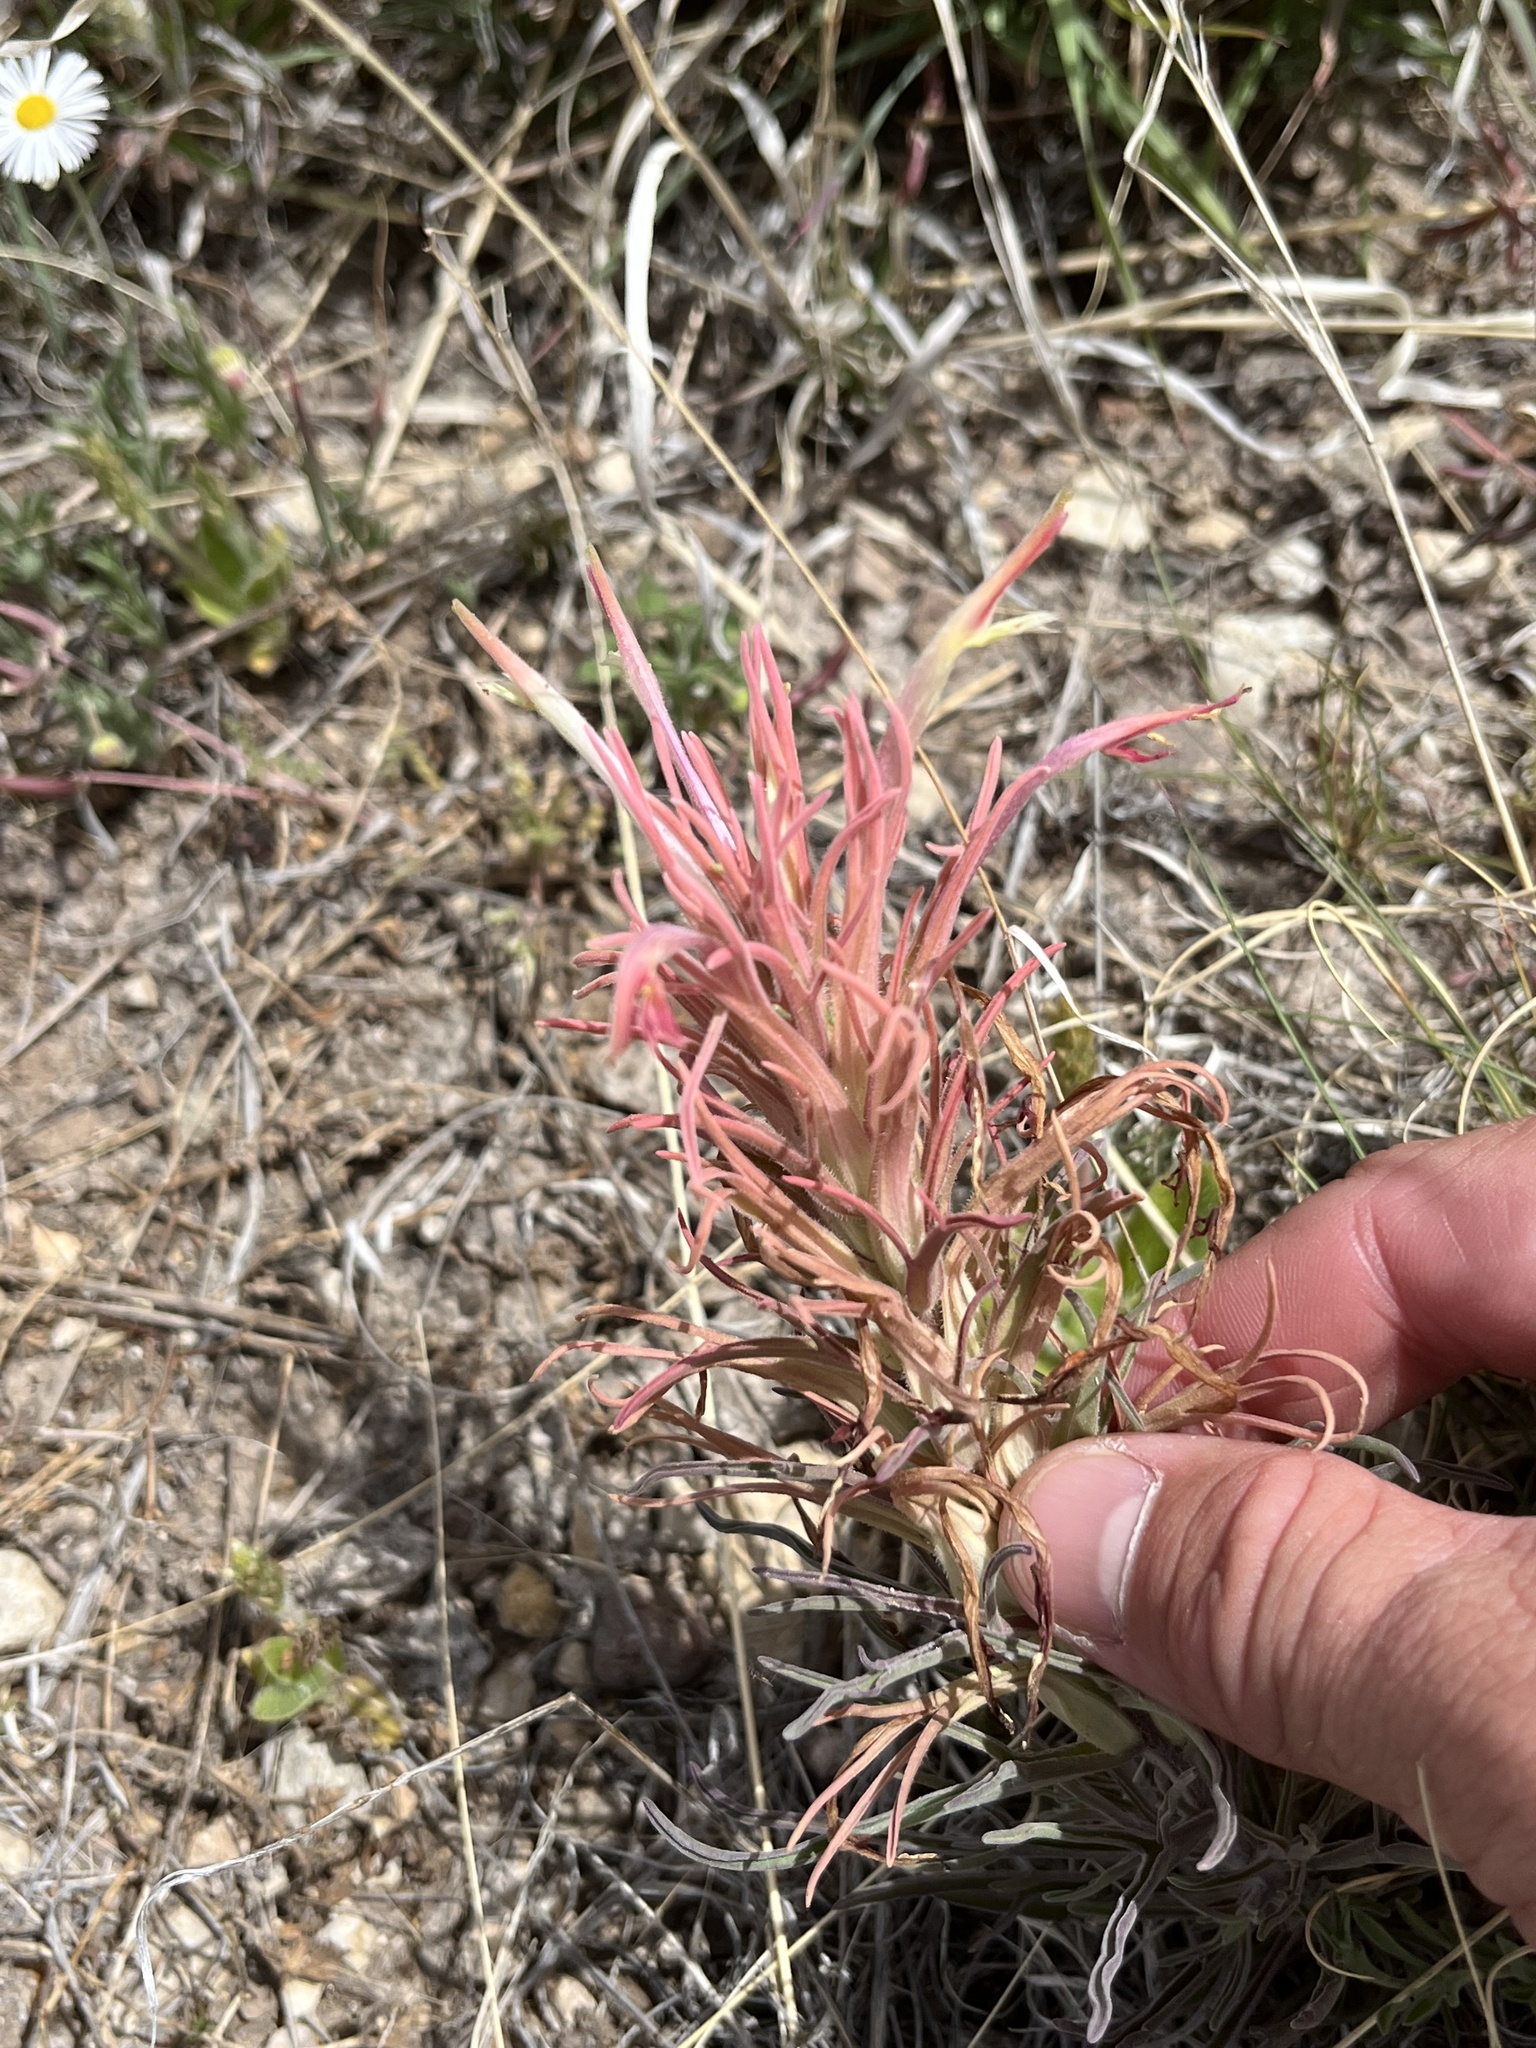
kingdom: Plantae
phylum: Tracheophyta
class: Magnoliopsida
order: Lamiales
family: Orobanchaceae
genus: Castilleja
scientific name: Castilleja sessiliflora
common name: Downy paintbrush
